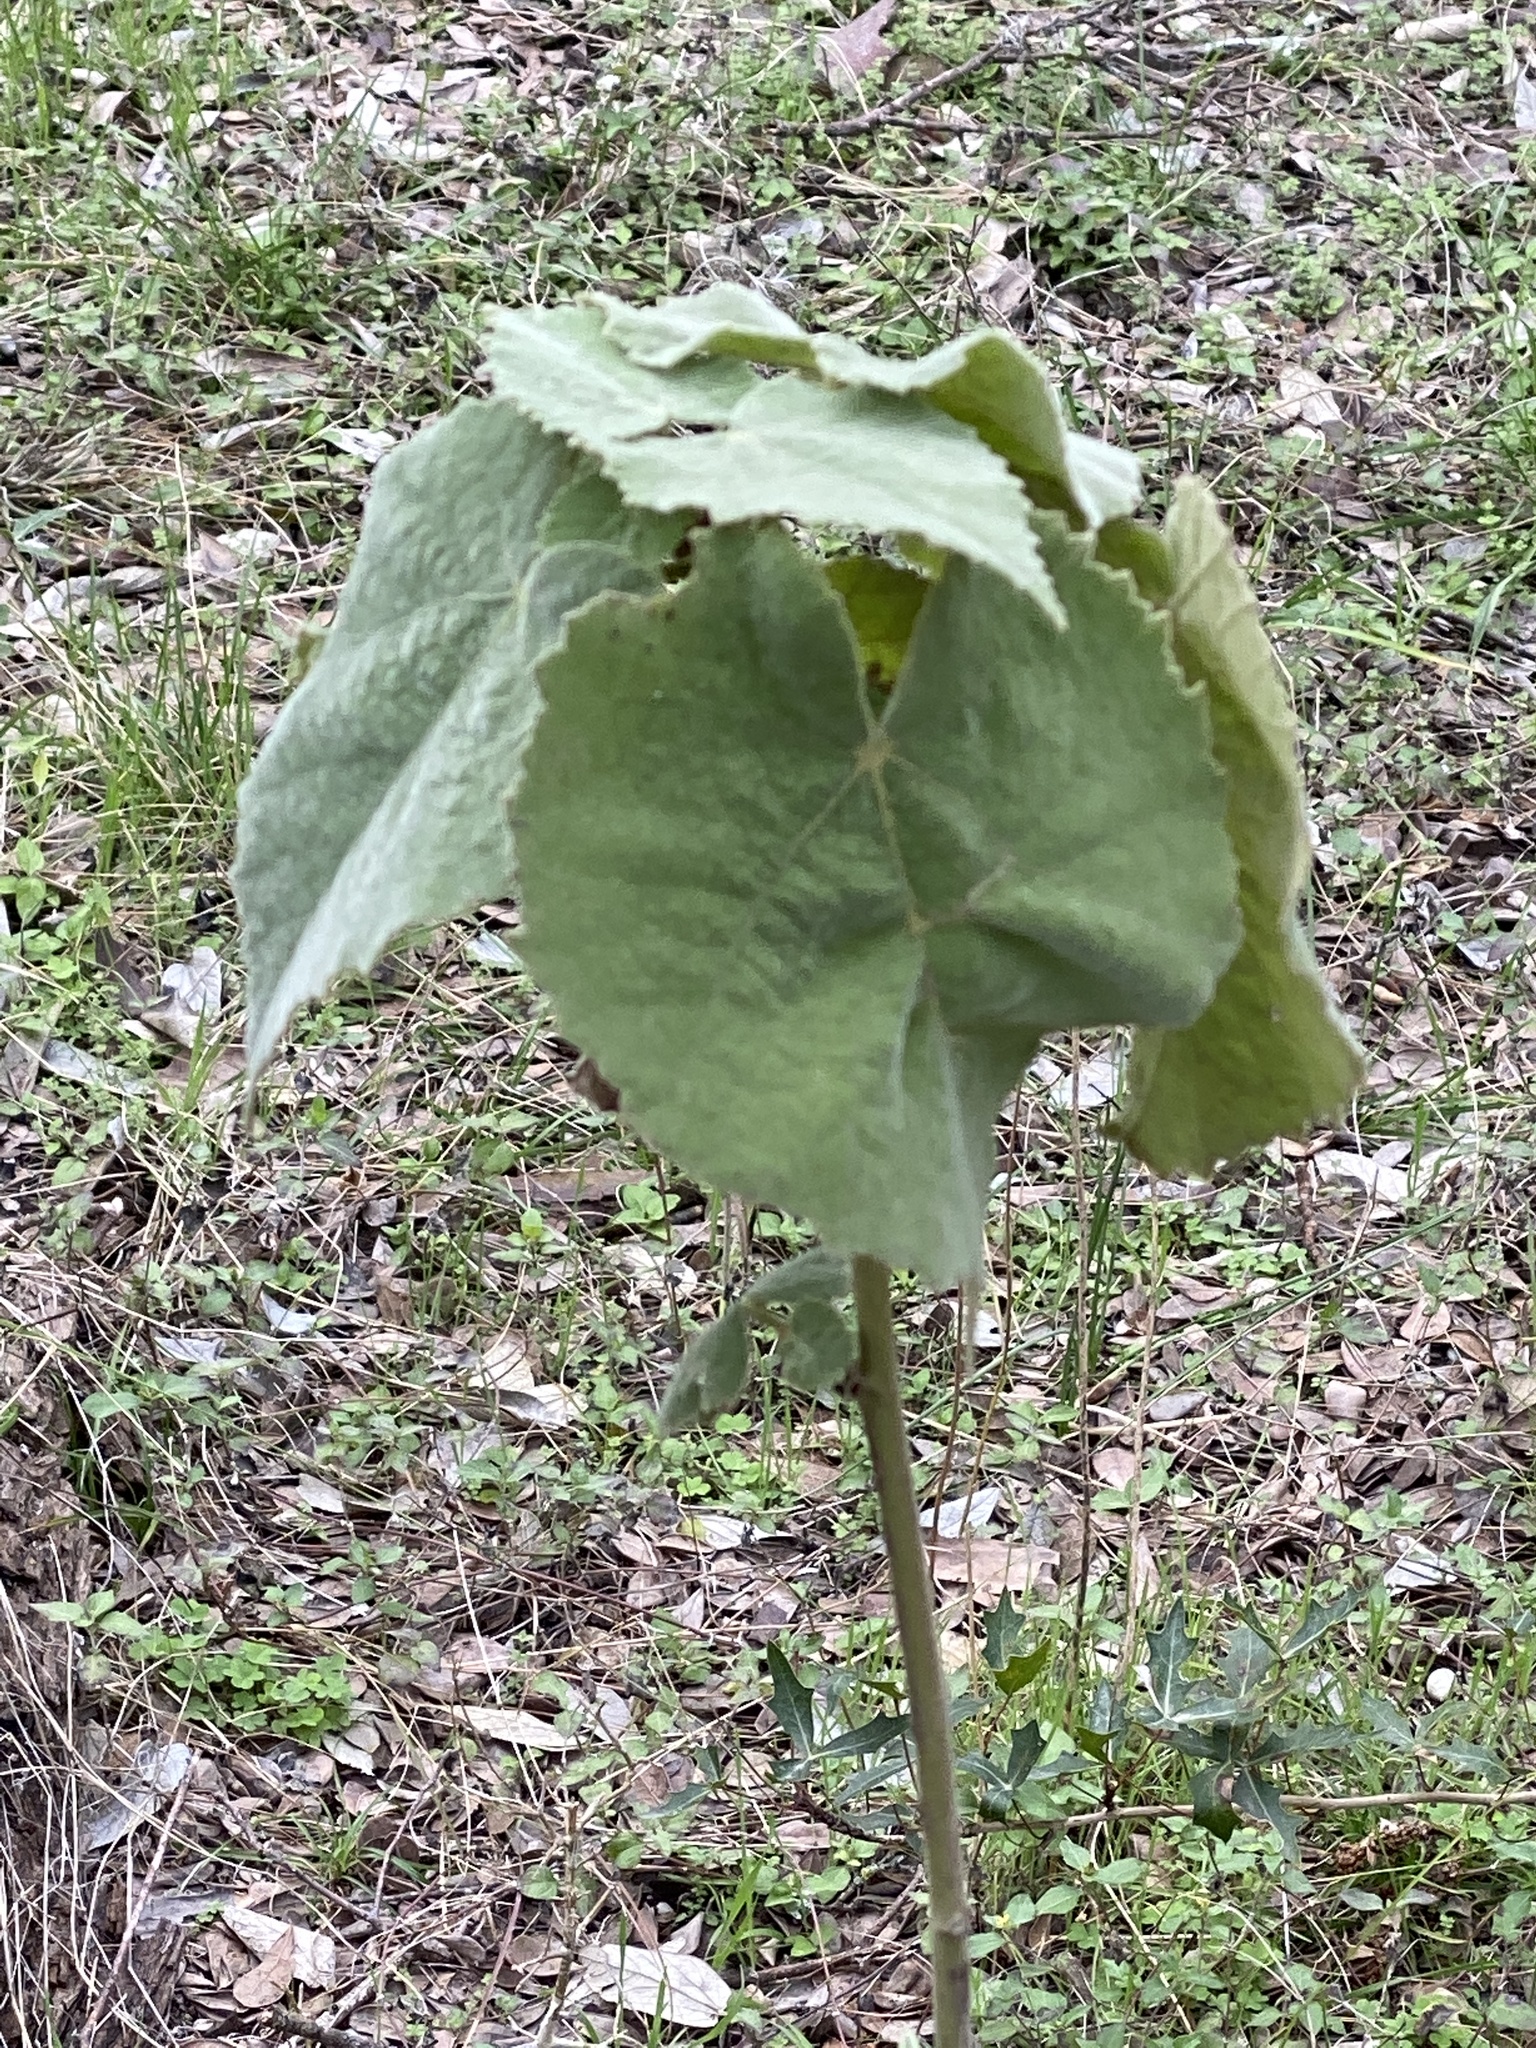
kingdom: Plantae
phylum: Tracheophyta
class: Magnoliopsida
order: Malvales
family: Malvaceae
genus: Allowissadula
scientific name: Allowissadula holosericea
